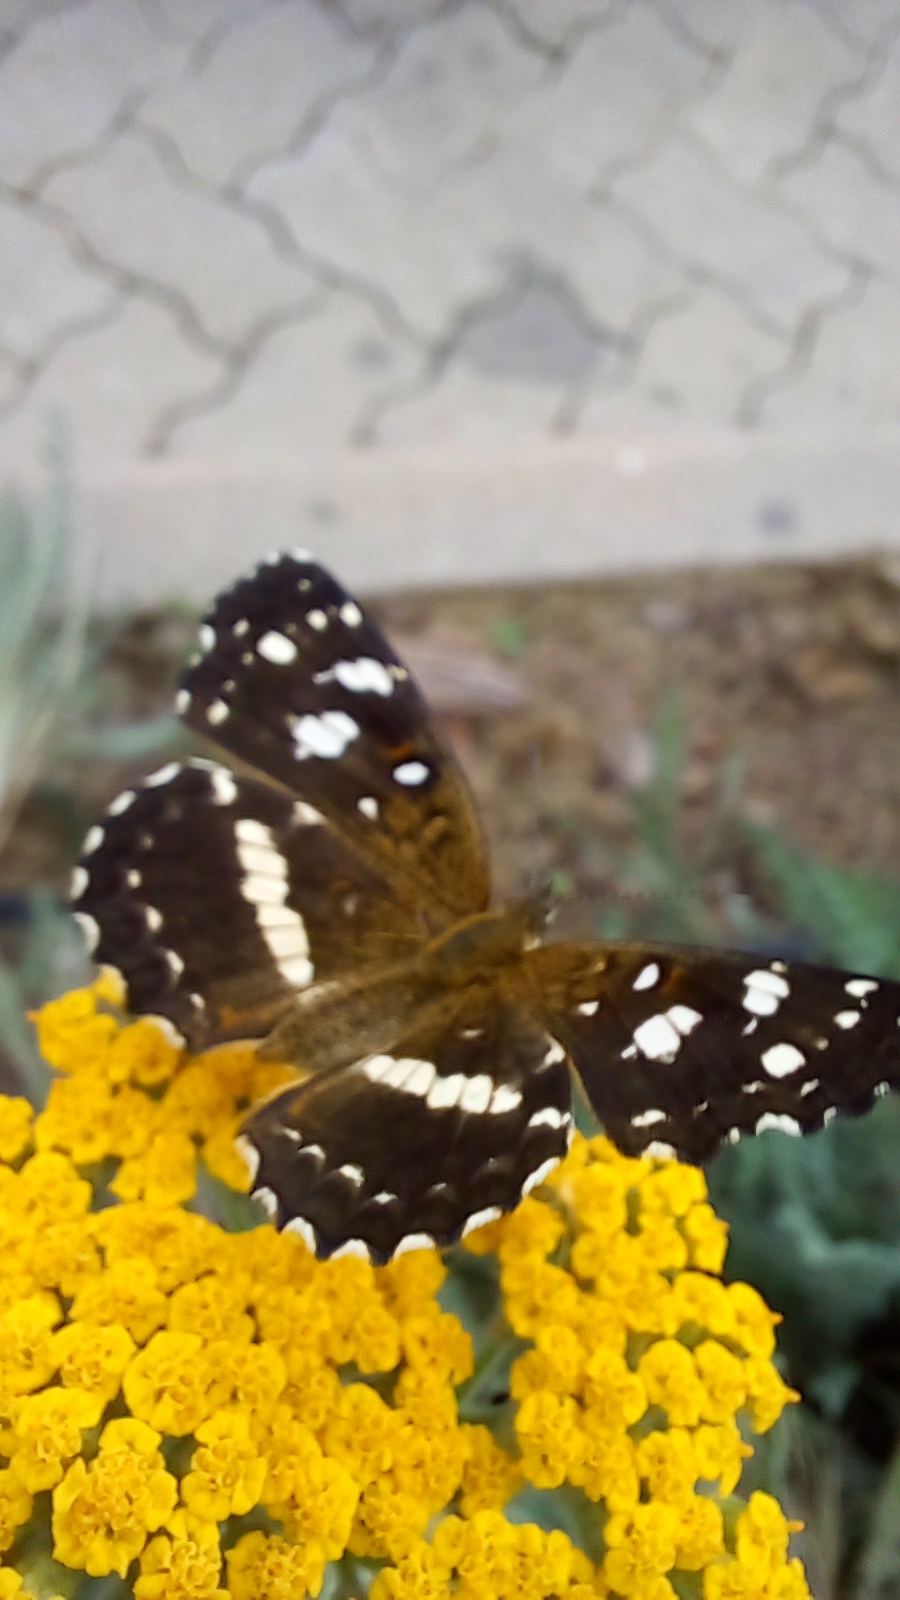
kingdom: Animalia
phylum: Arthropoda
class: Insecta
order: Lepidoptera
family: Nymphalidae
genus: Ortilia
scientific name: Ortilia ithra
